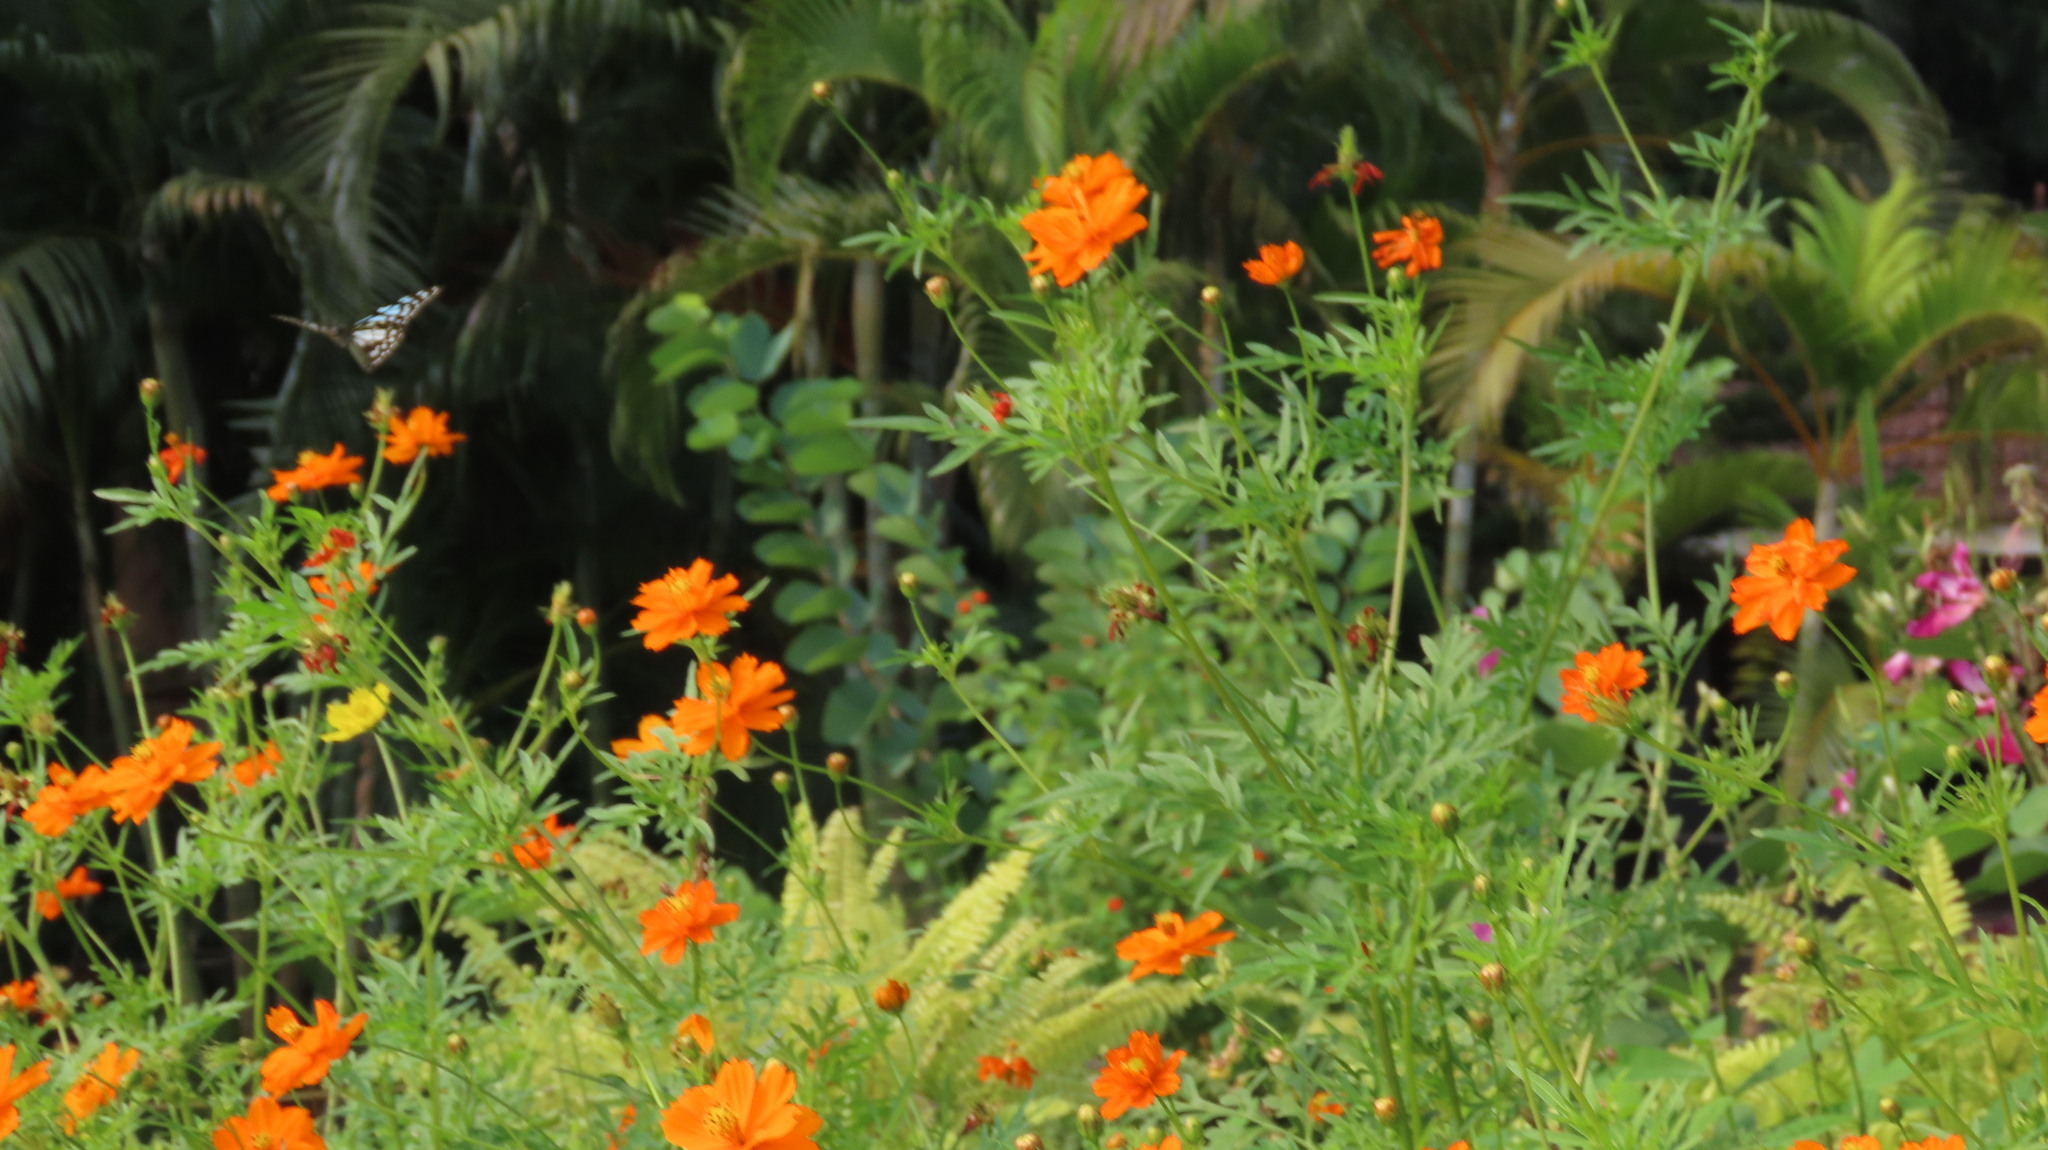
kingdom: Animalia
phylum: Arthropoda
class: Insecta
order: Lepidoptera
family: Nymphalidae
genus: Tirumala
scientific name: Tirumala limniace
